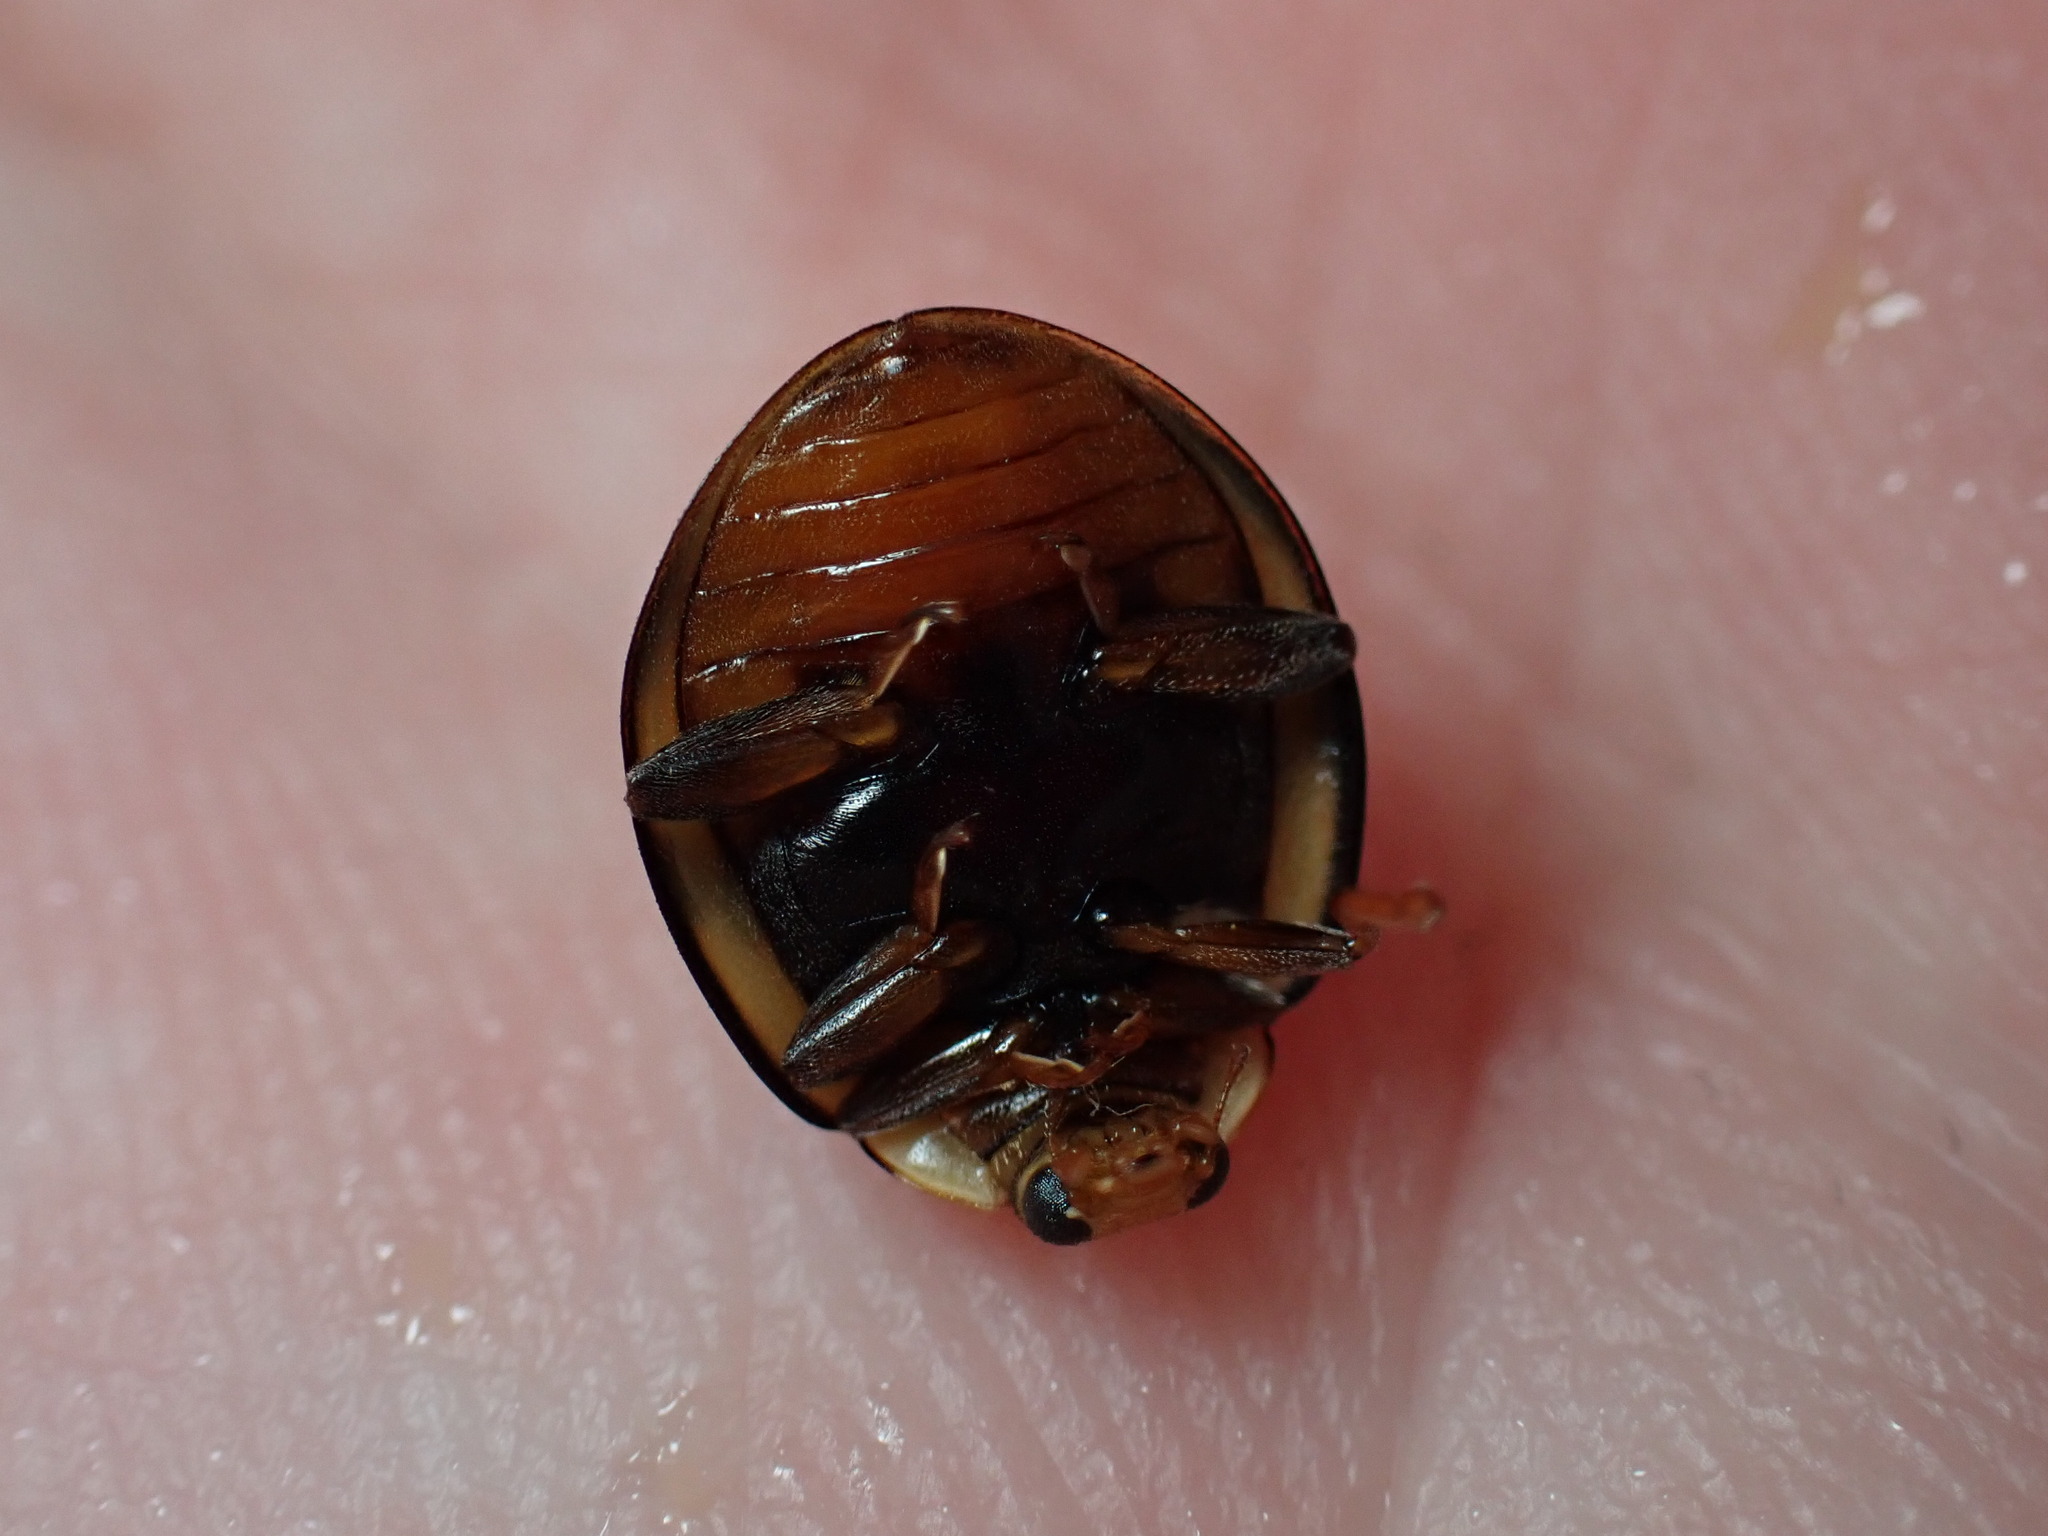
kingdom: Animalia
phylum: Arthropoda
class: Insecta
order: Coleoptera
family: Coccinellidae
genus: Harmonia
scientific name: Harmonia
